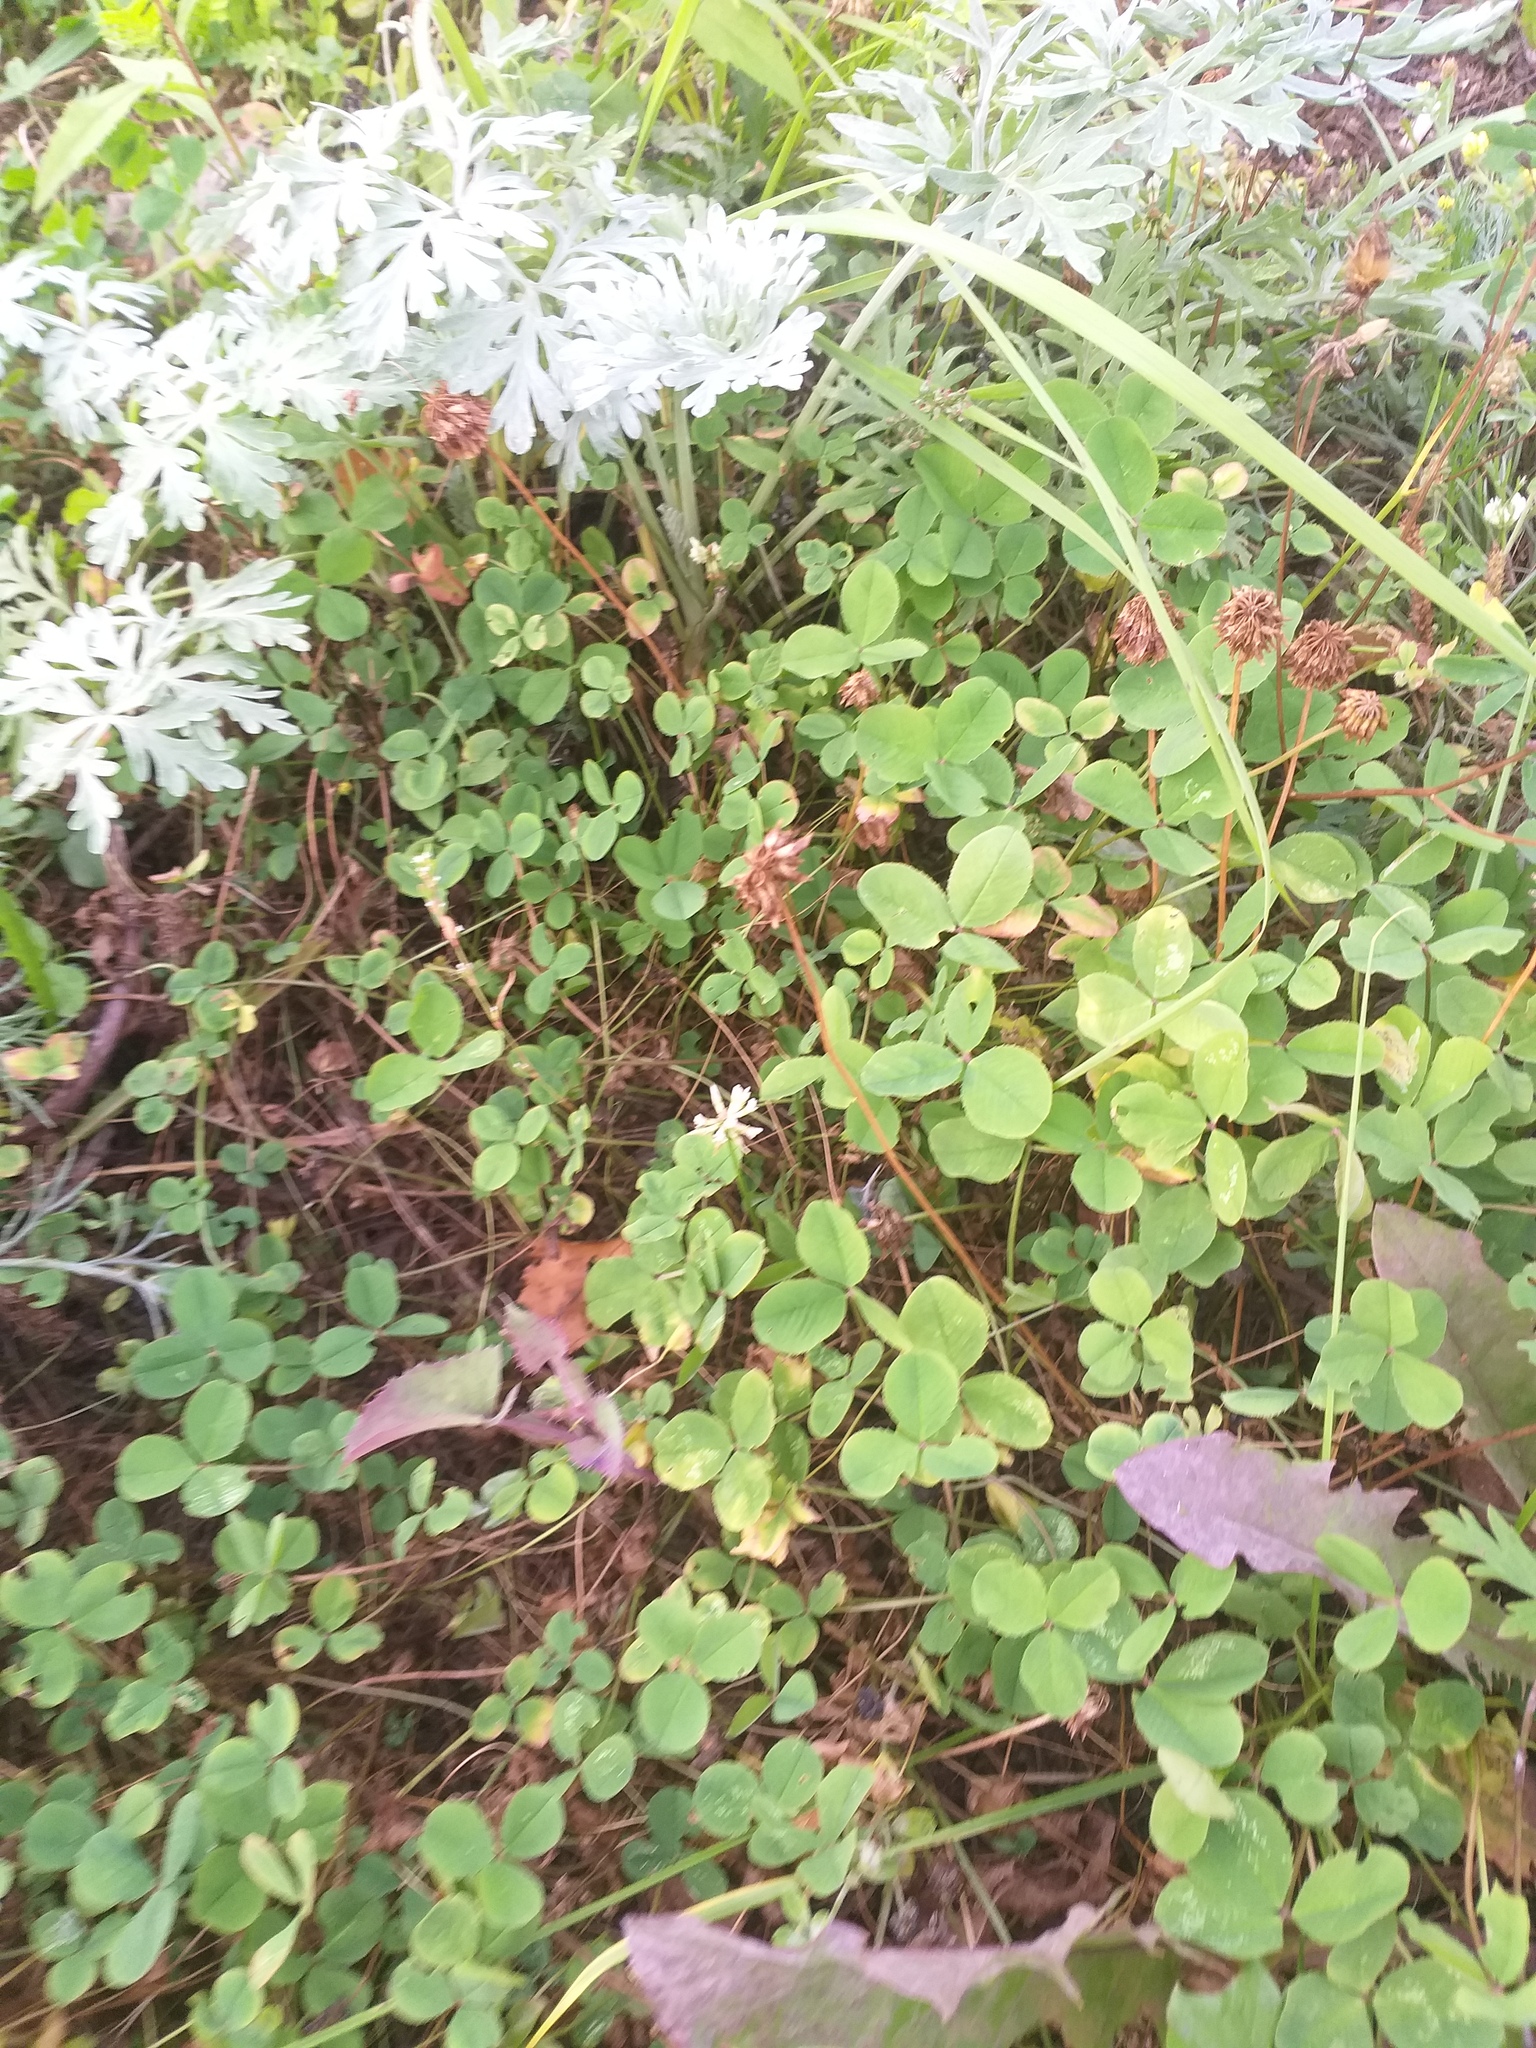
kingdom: Plantae
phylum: Tracheophyta
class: Magnoliopsida
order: Fabales
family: Fabaceae
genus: Trifolium
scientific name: Trifolium repens
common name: White clover
